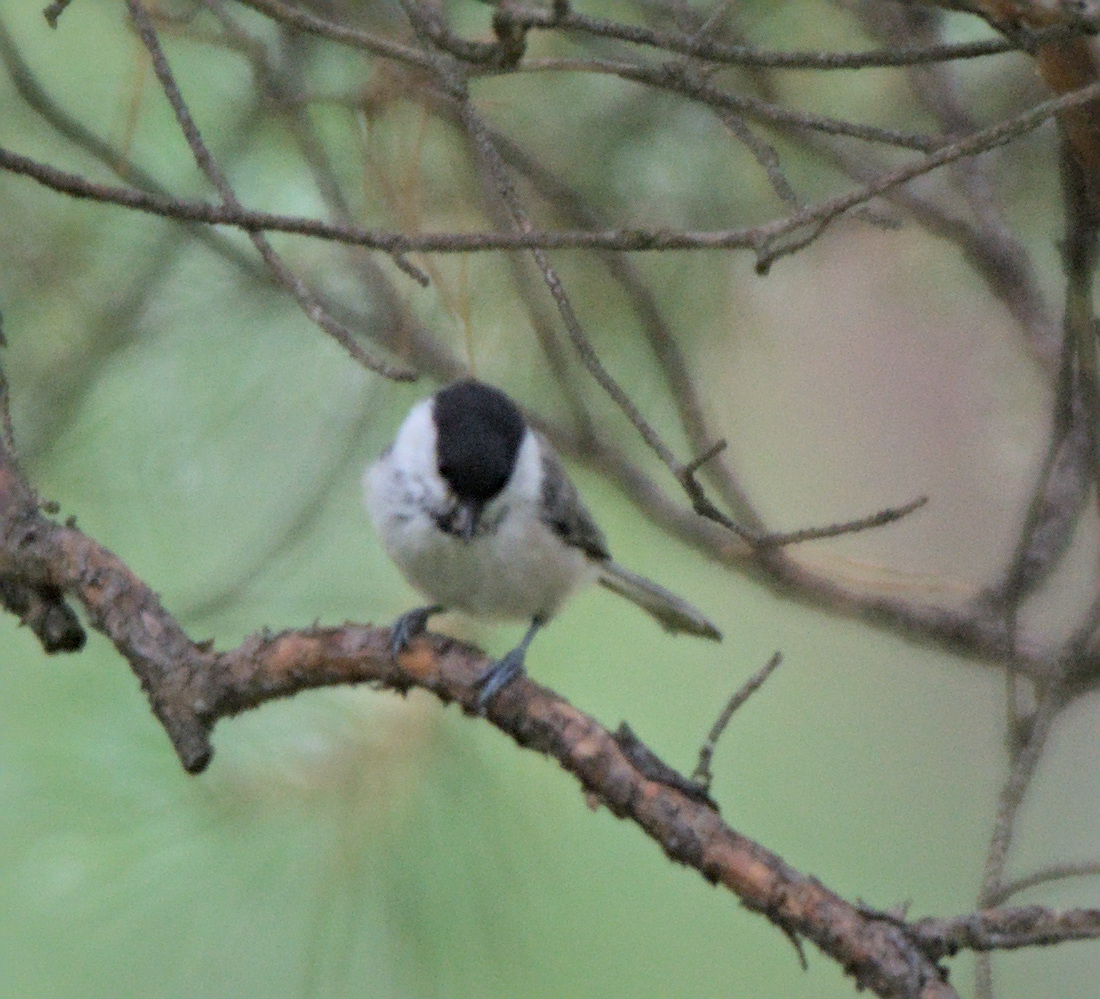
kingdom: Animalia
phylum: Chordata
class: Aves
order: Passeriformes
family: Paridae
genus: Poecile
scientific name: Poecile montanus
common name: Willow tit
